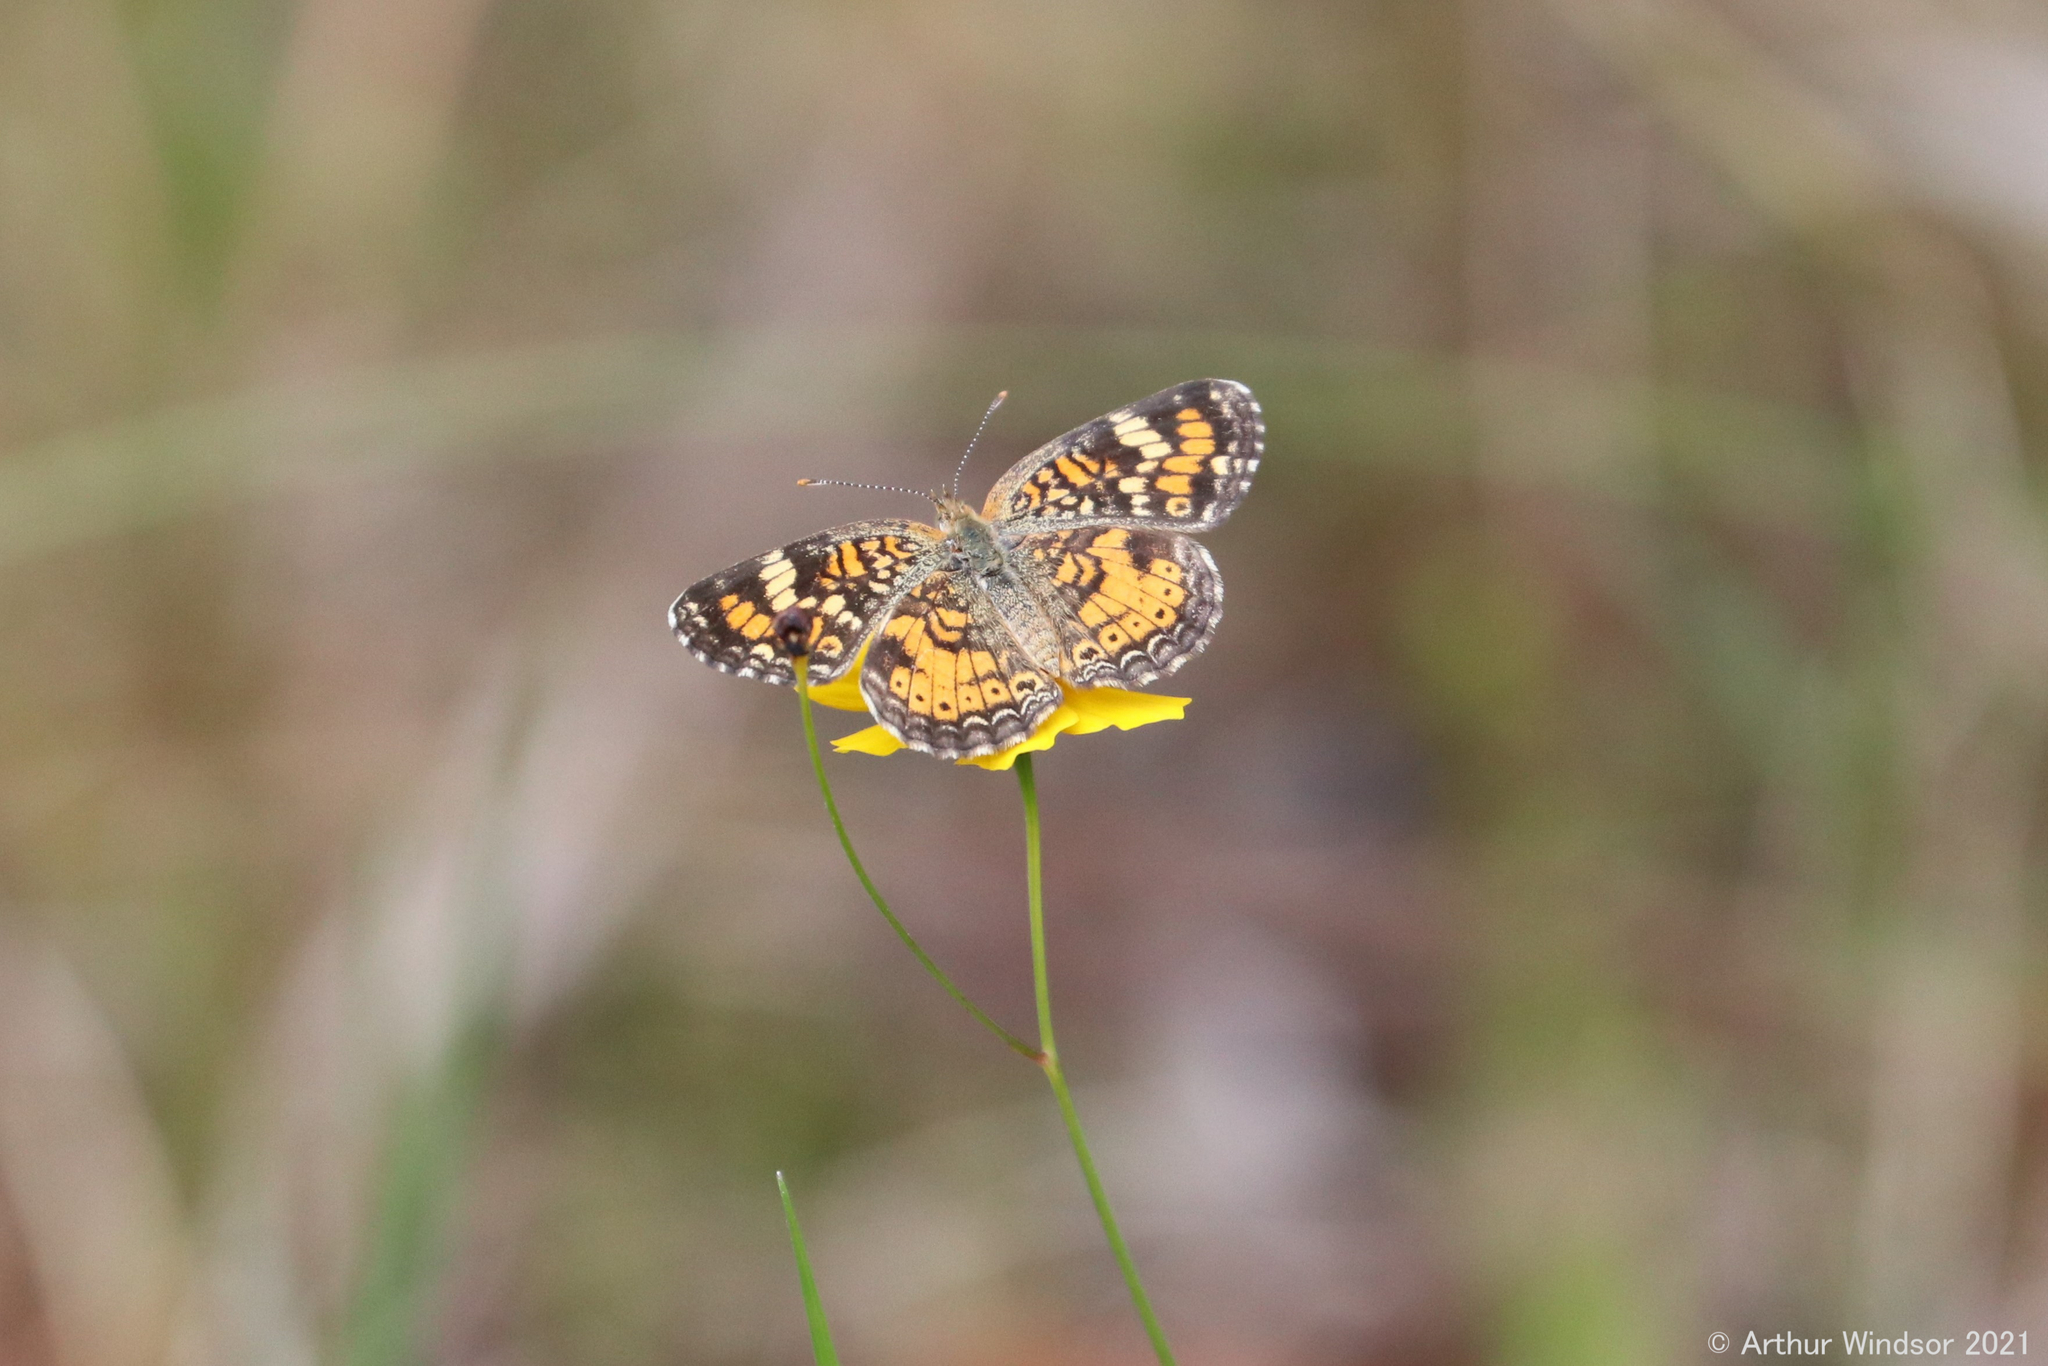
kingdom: Animalia
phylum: Arthropoda
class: Insecta
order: Lepidoptera
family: Nymphalidae
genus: Phyciodes
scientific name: Phyciodes phaon
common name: Phaon crescent
